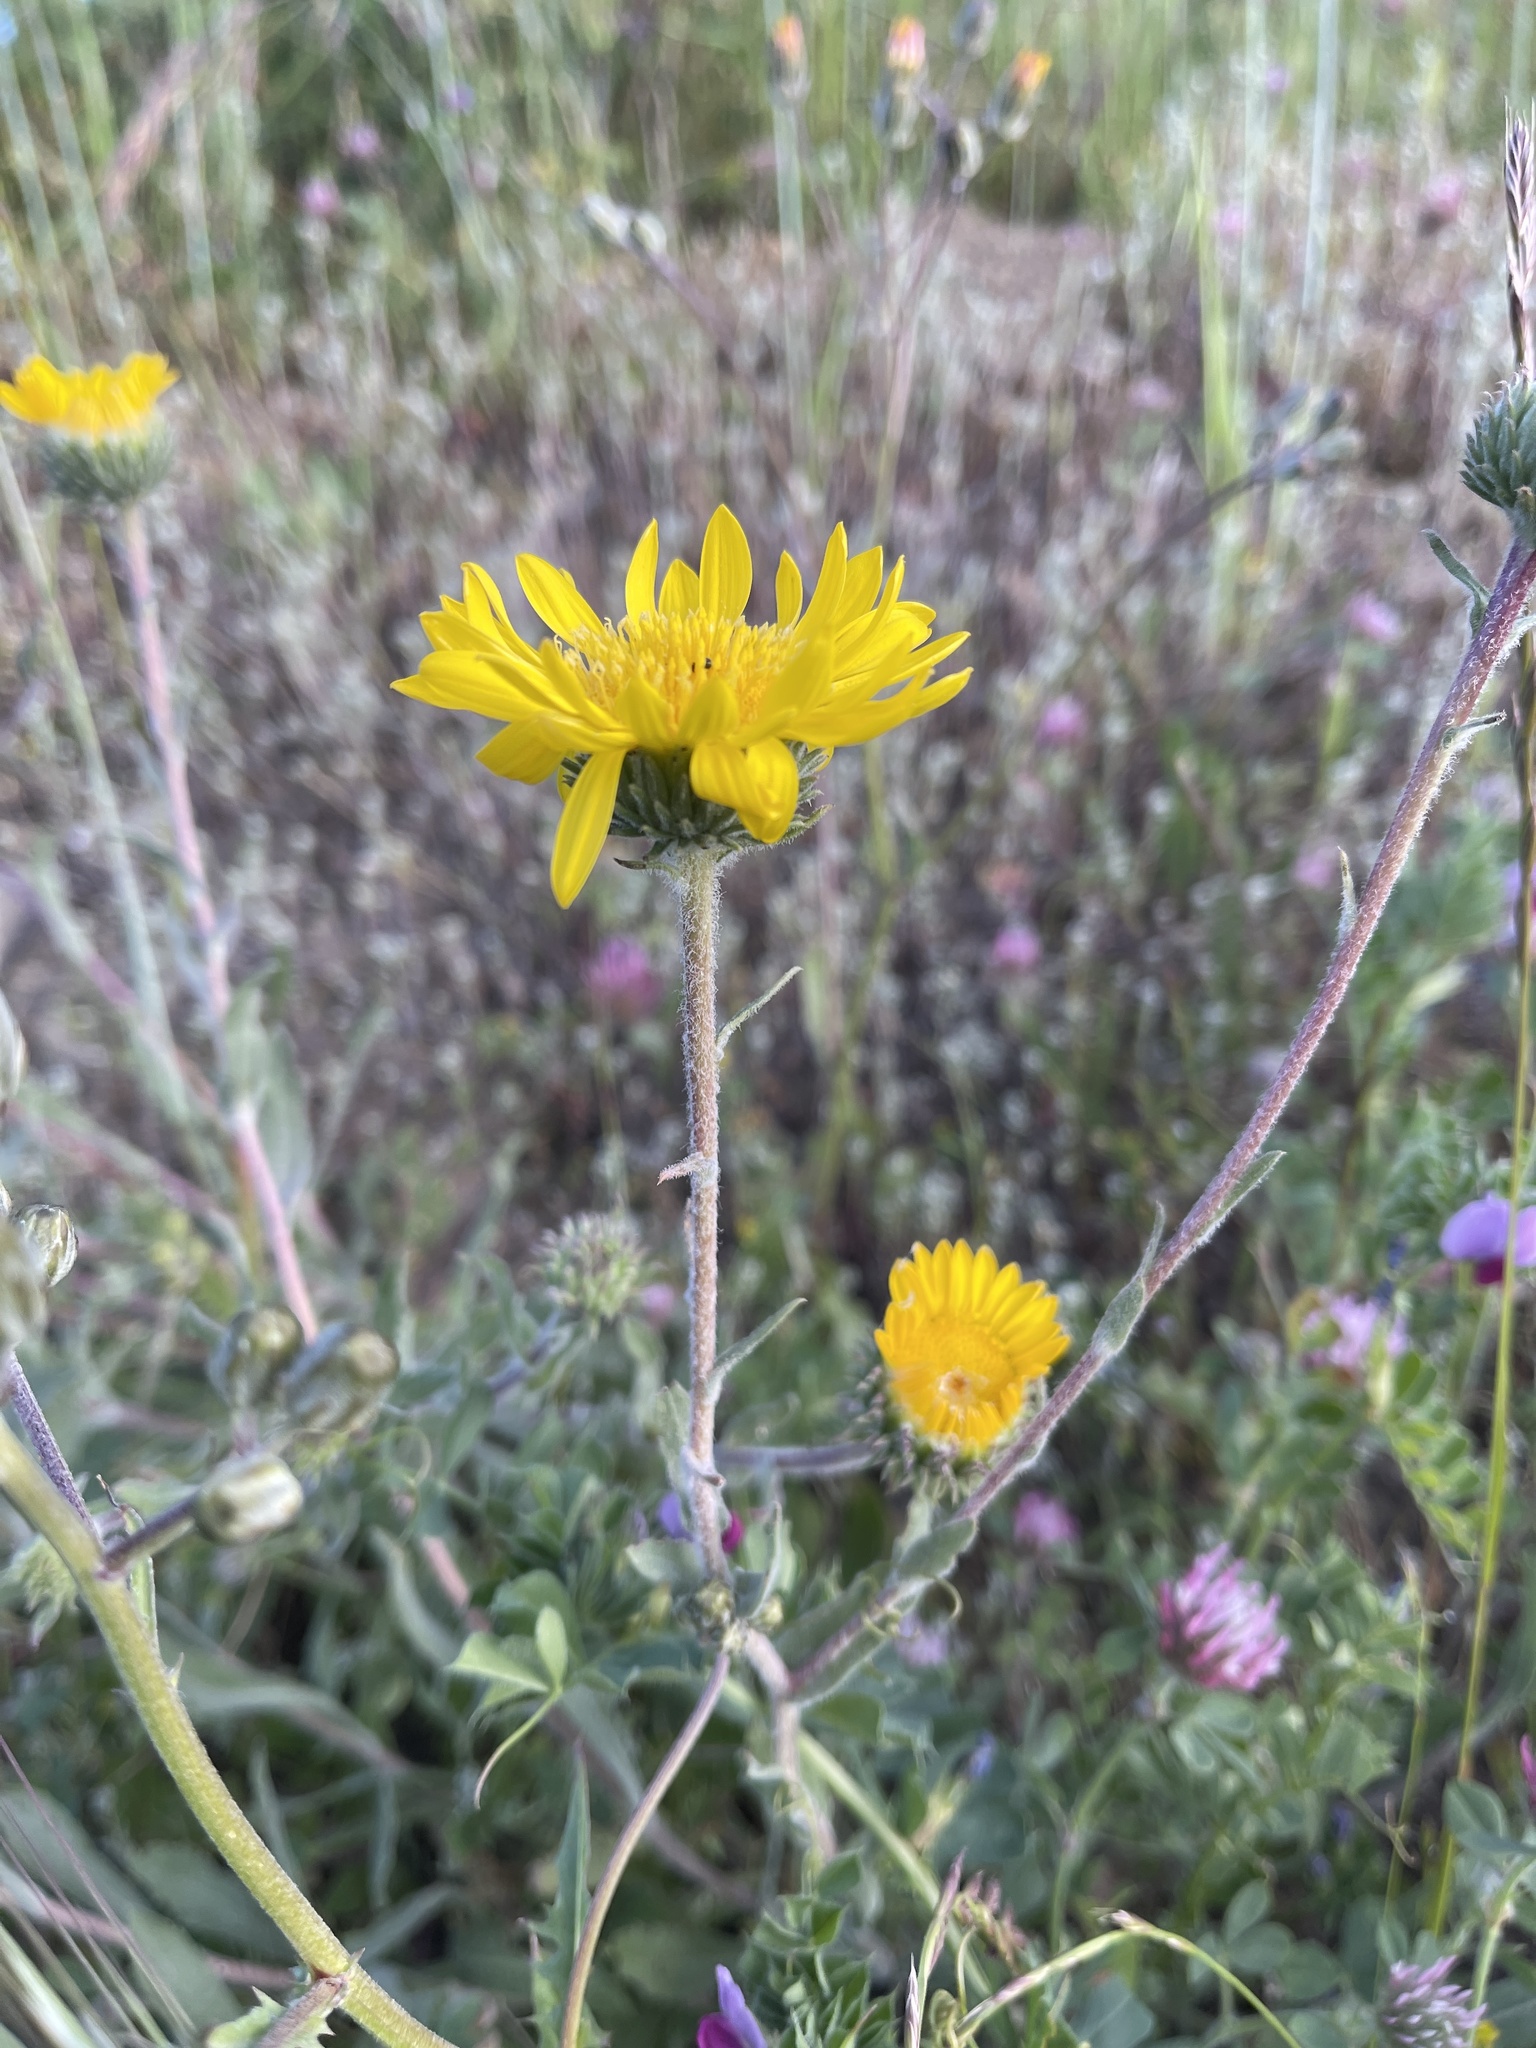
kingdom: Plantae
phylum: Tracheophyta
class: Magnoliopsida
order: Asterales
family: Asteraceae
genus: Grindelia
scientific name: Grindelia hirsutula
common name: Hairy gumweed
